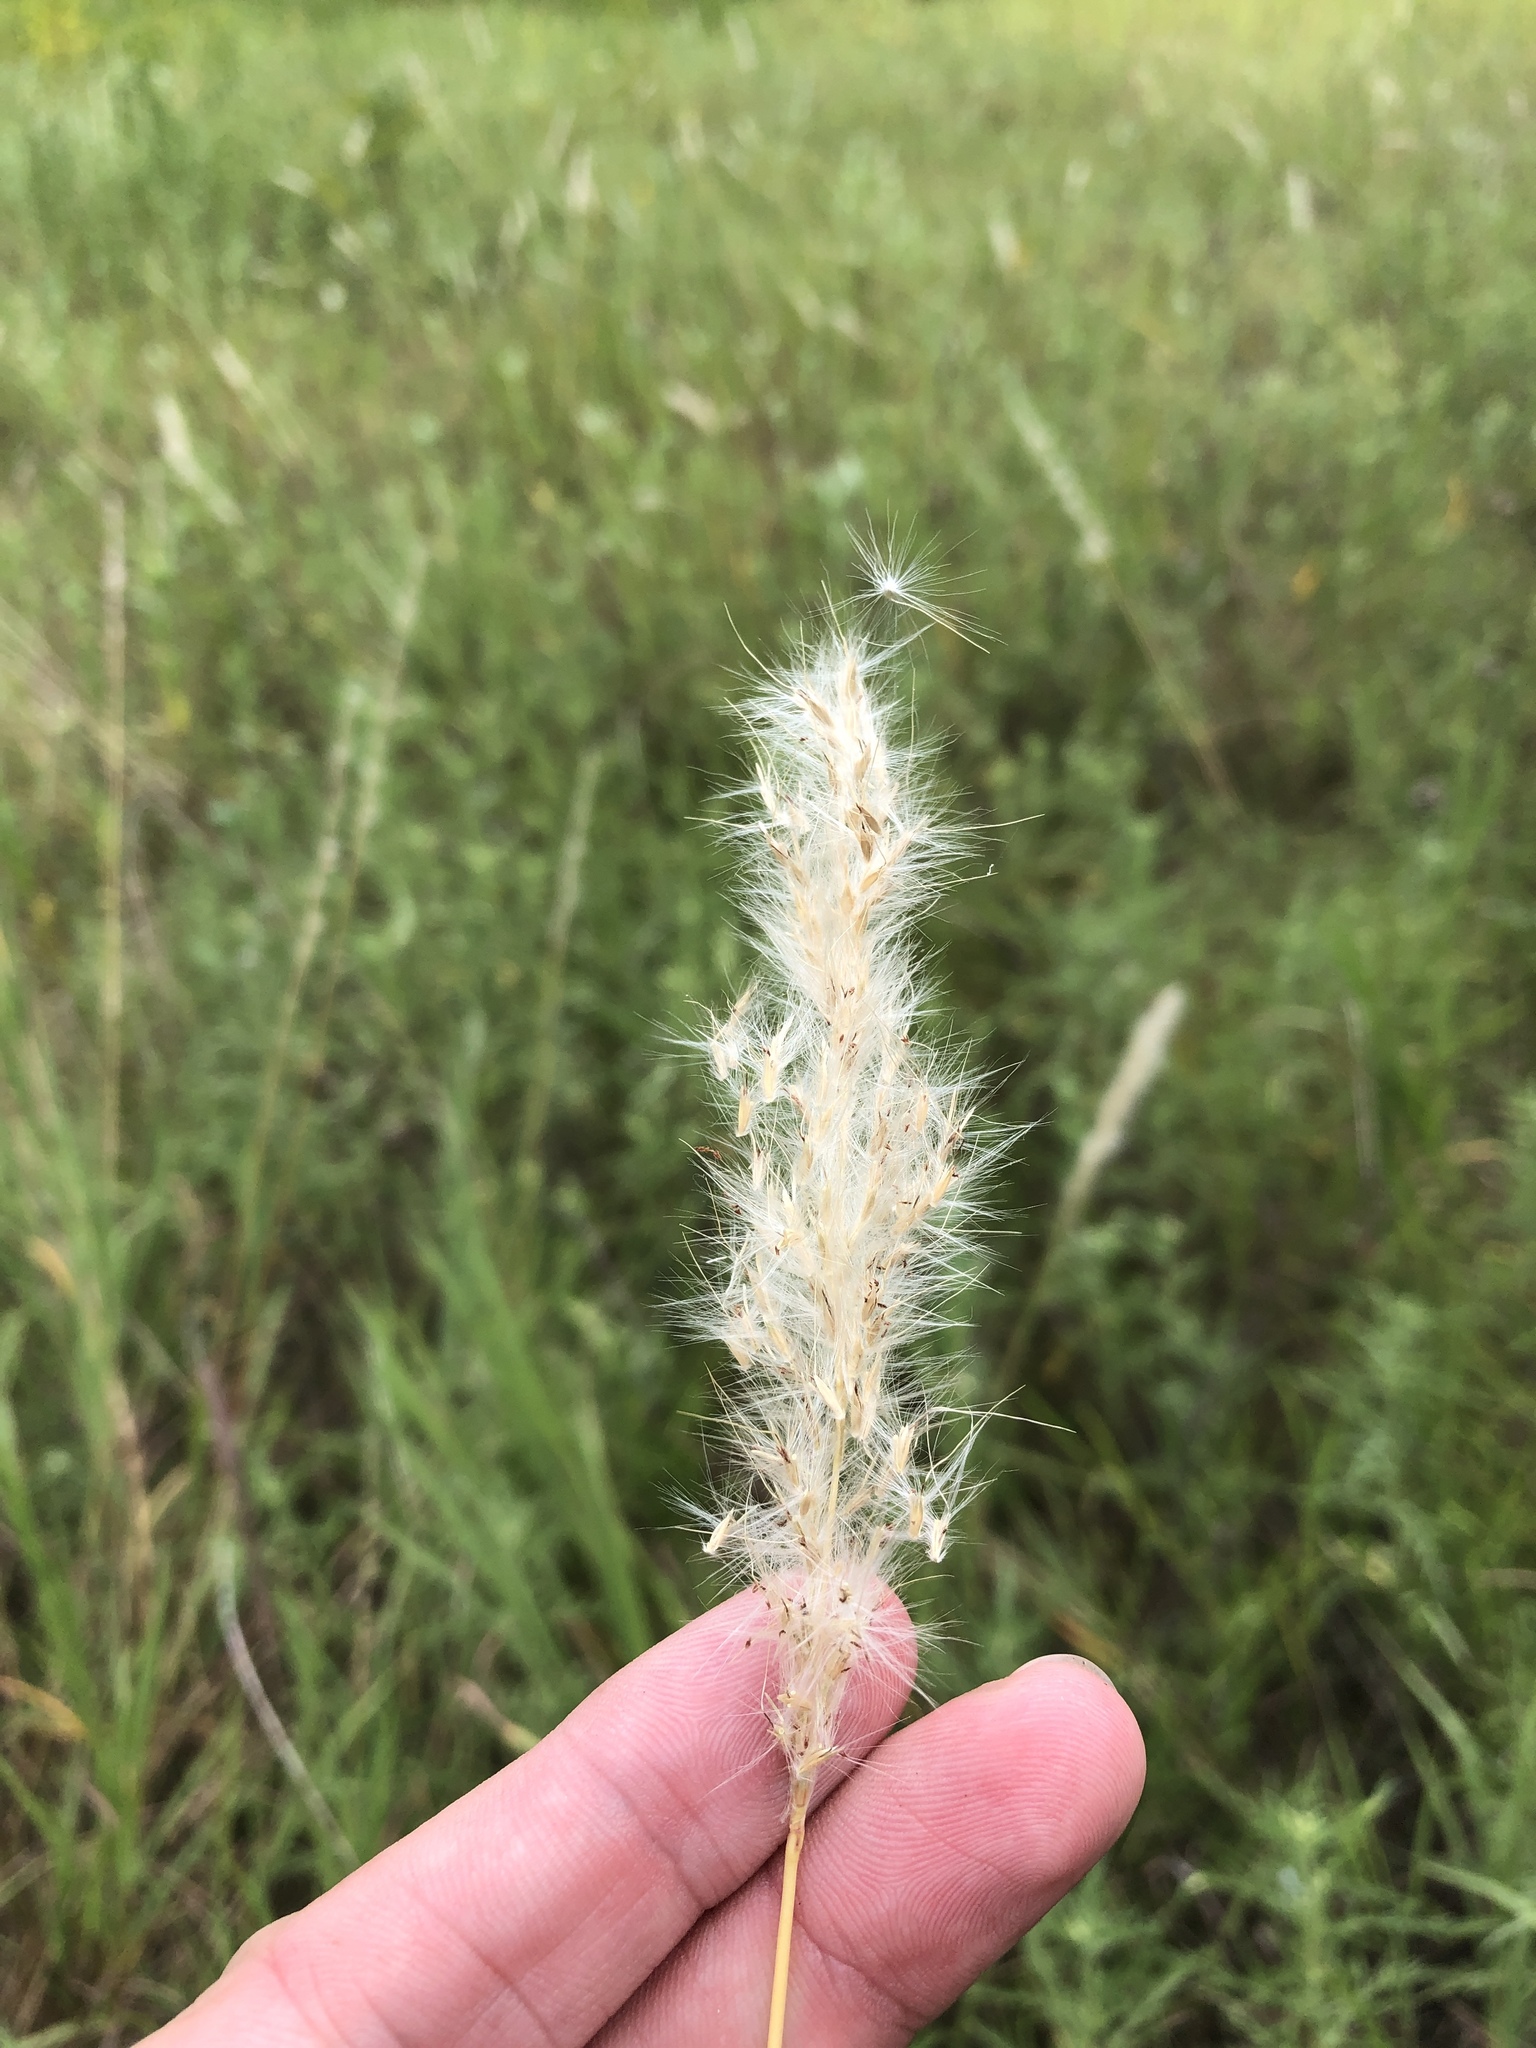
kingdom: Plantae
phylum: Tracheophyta
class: Liliopsida
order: Poales
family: Poaceae
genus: Bothriochloa
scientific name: Bothriochloa torreyana
